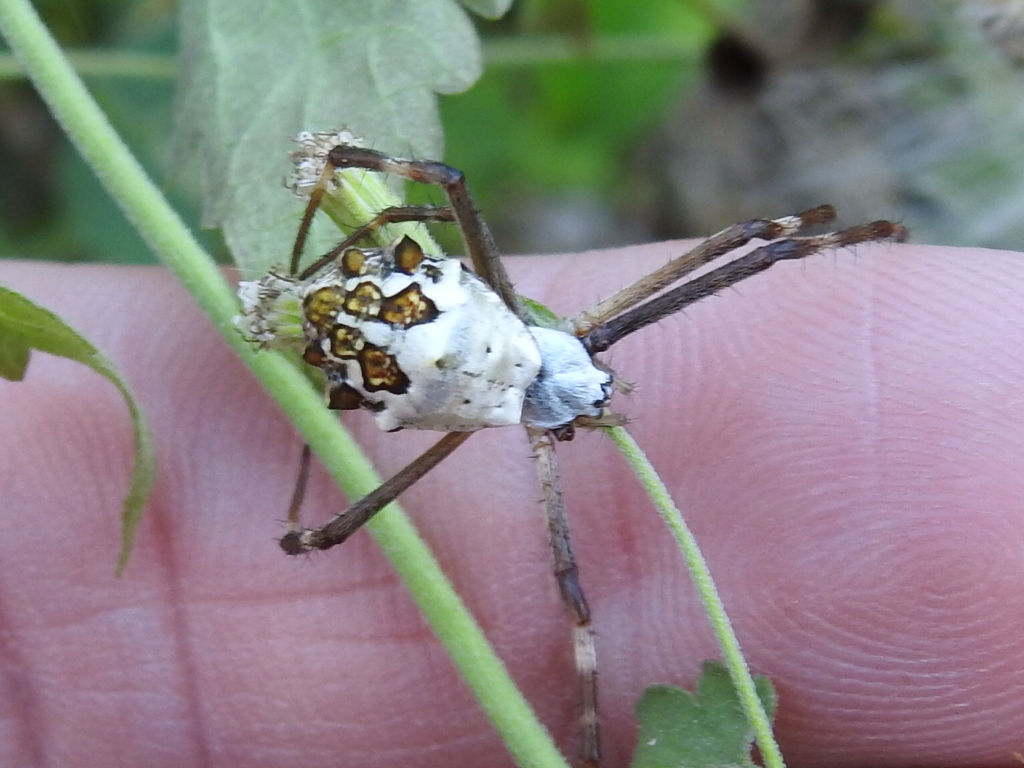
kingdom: Animalia
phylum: Arthropoda
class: Arachnida
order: Araneae
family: Araneidae
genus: Argiope
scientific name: Argiope argentata
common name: Orb weavers
